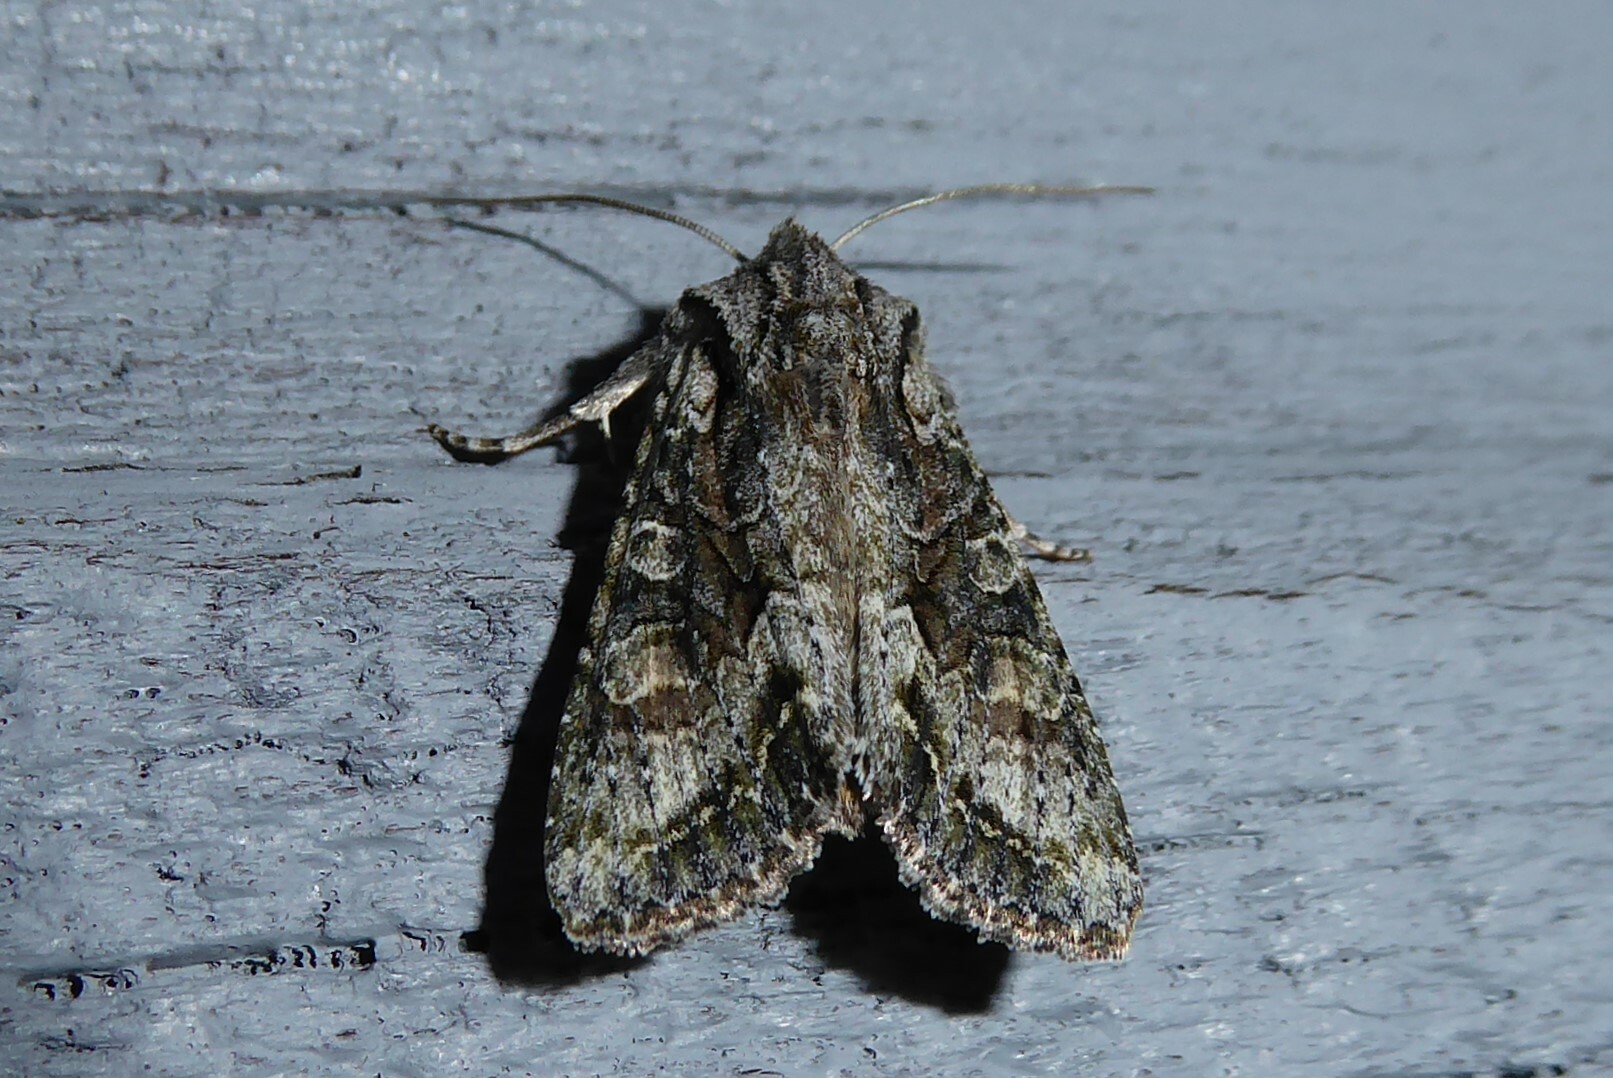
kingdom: Animalia
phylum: Arthropoda
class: Insecta
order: Lepidoptera
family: Noctuidae
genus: Ichneutica
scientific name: Ichneutica mutans
